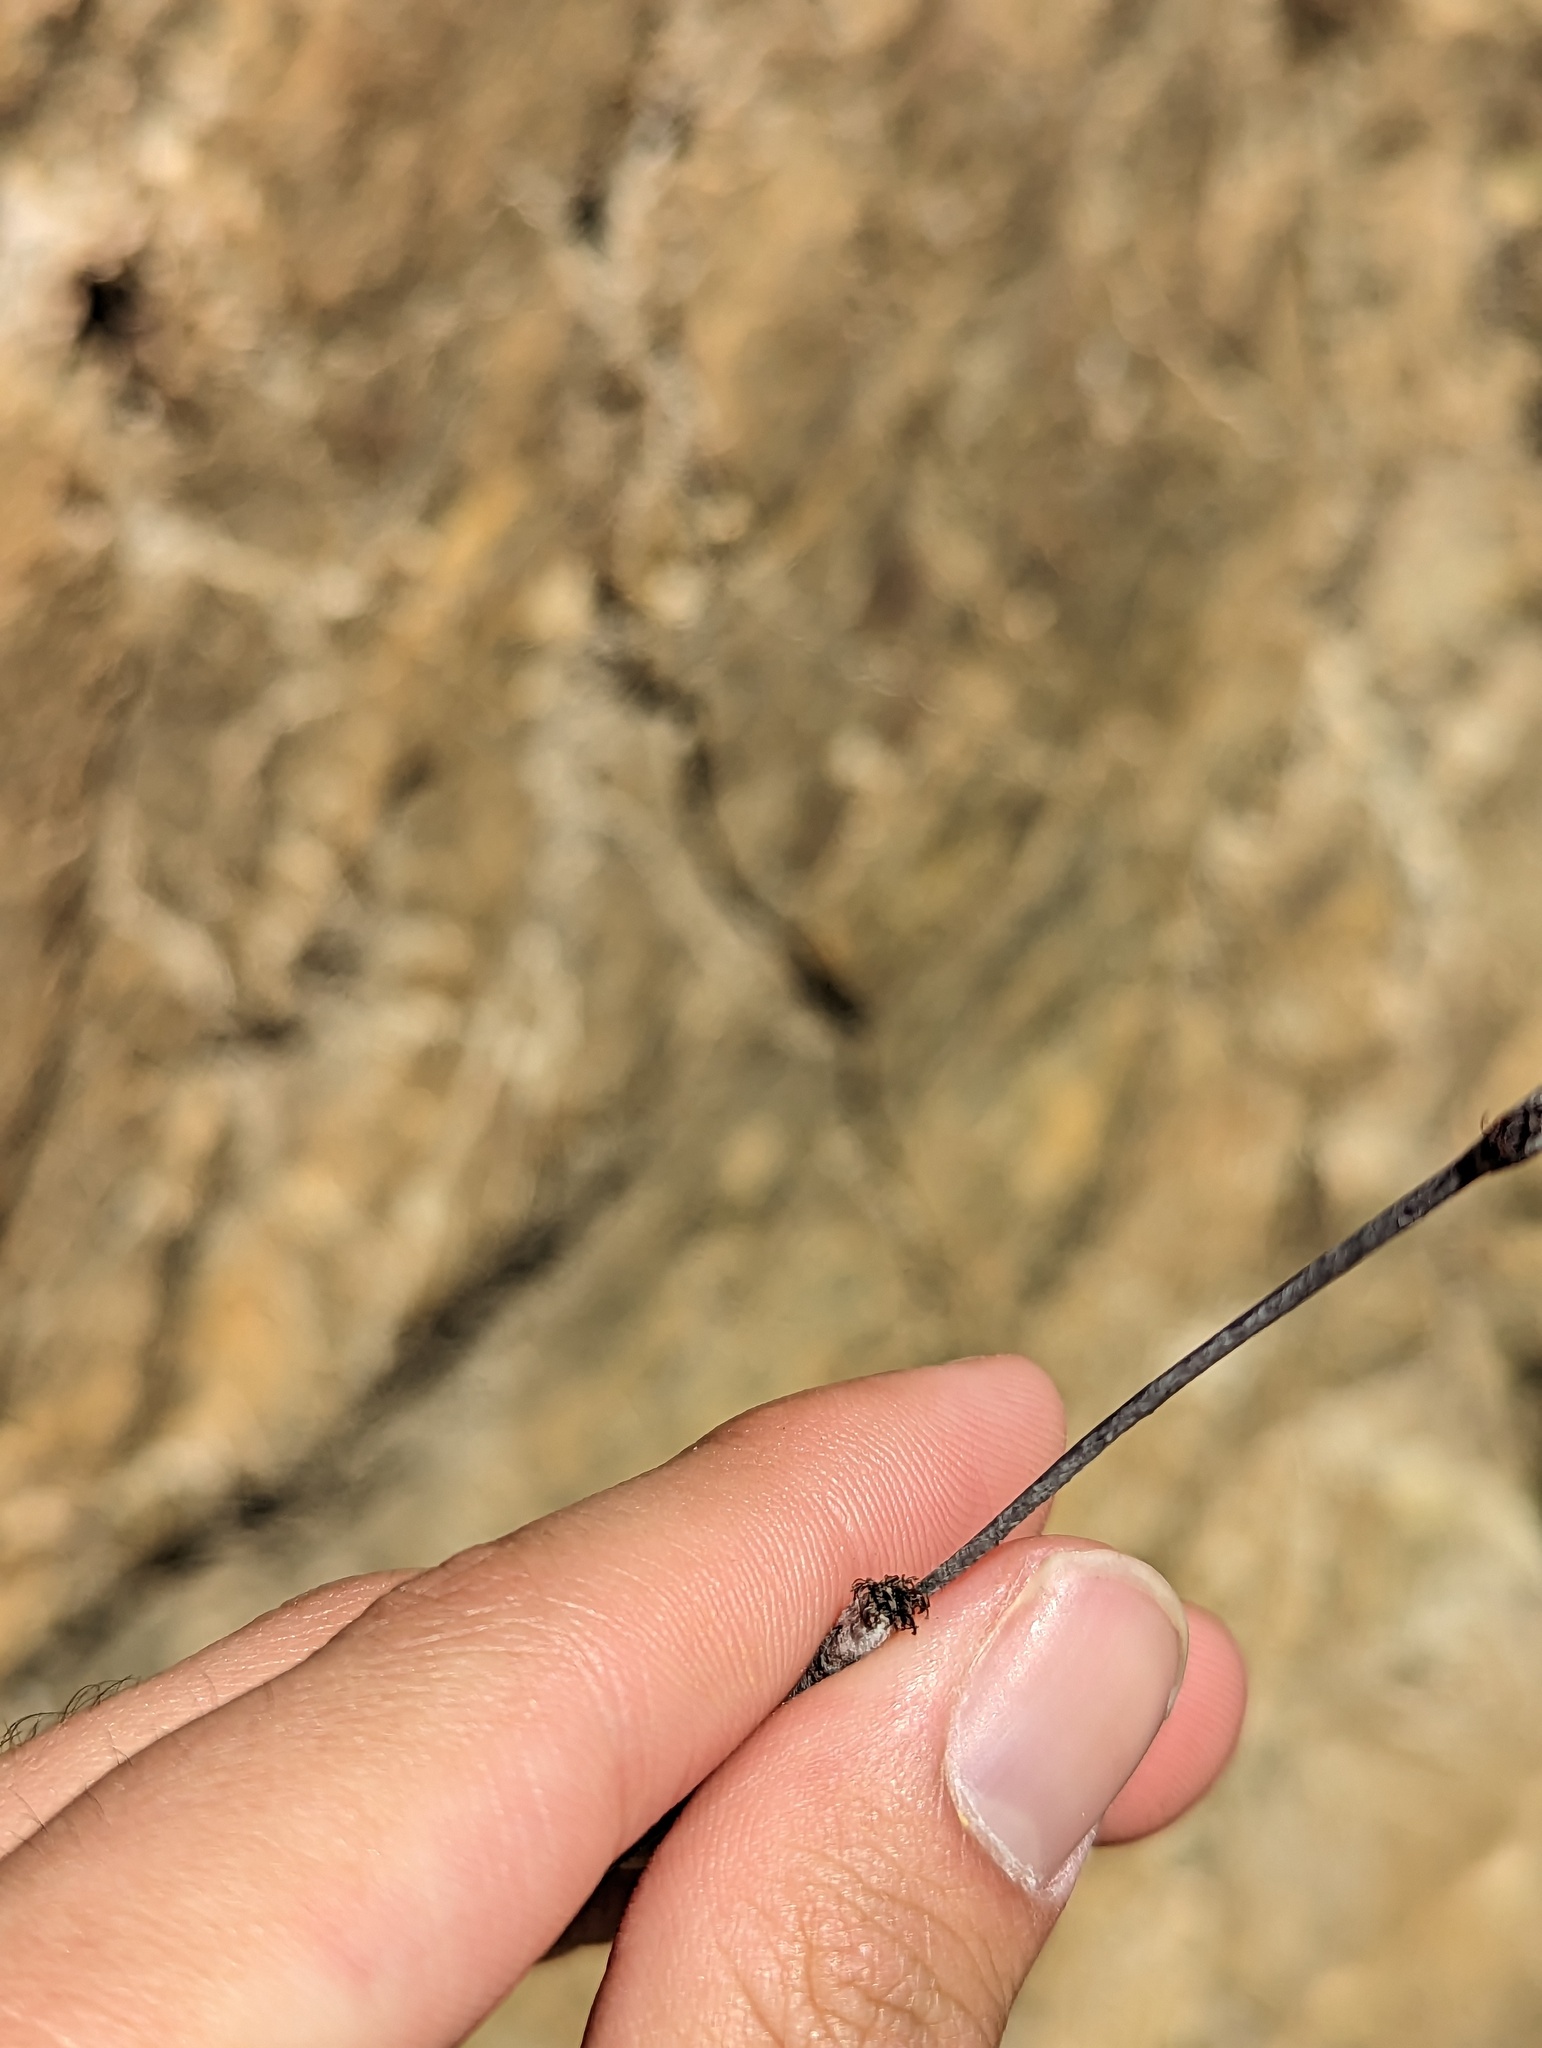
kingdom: Plantae
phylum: Tracheophyta
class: Magnoliopsida
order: Caryophyllales
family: Polygonaceae
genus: Eriogonum
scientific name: Eriogonum elongatum
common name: Long-stem wild buckwheat
